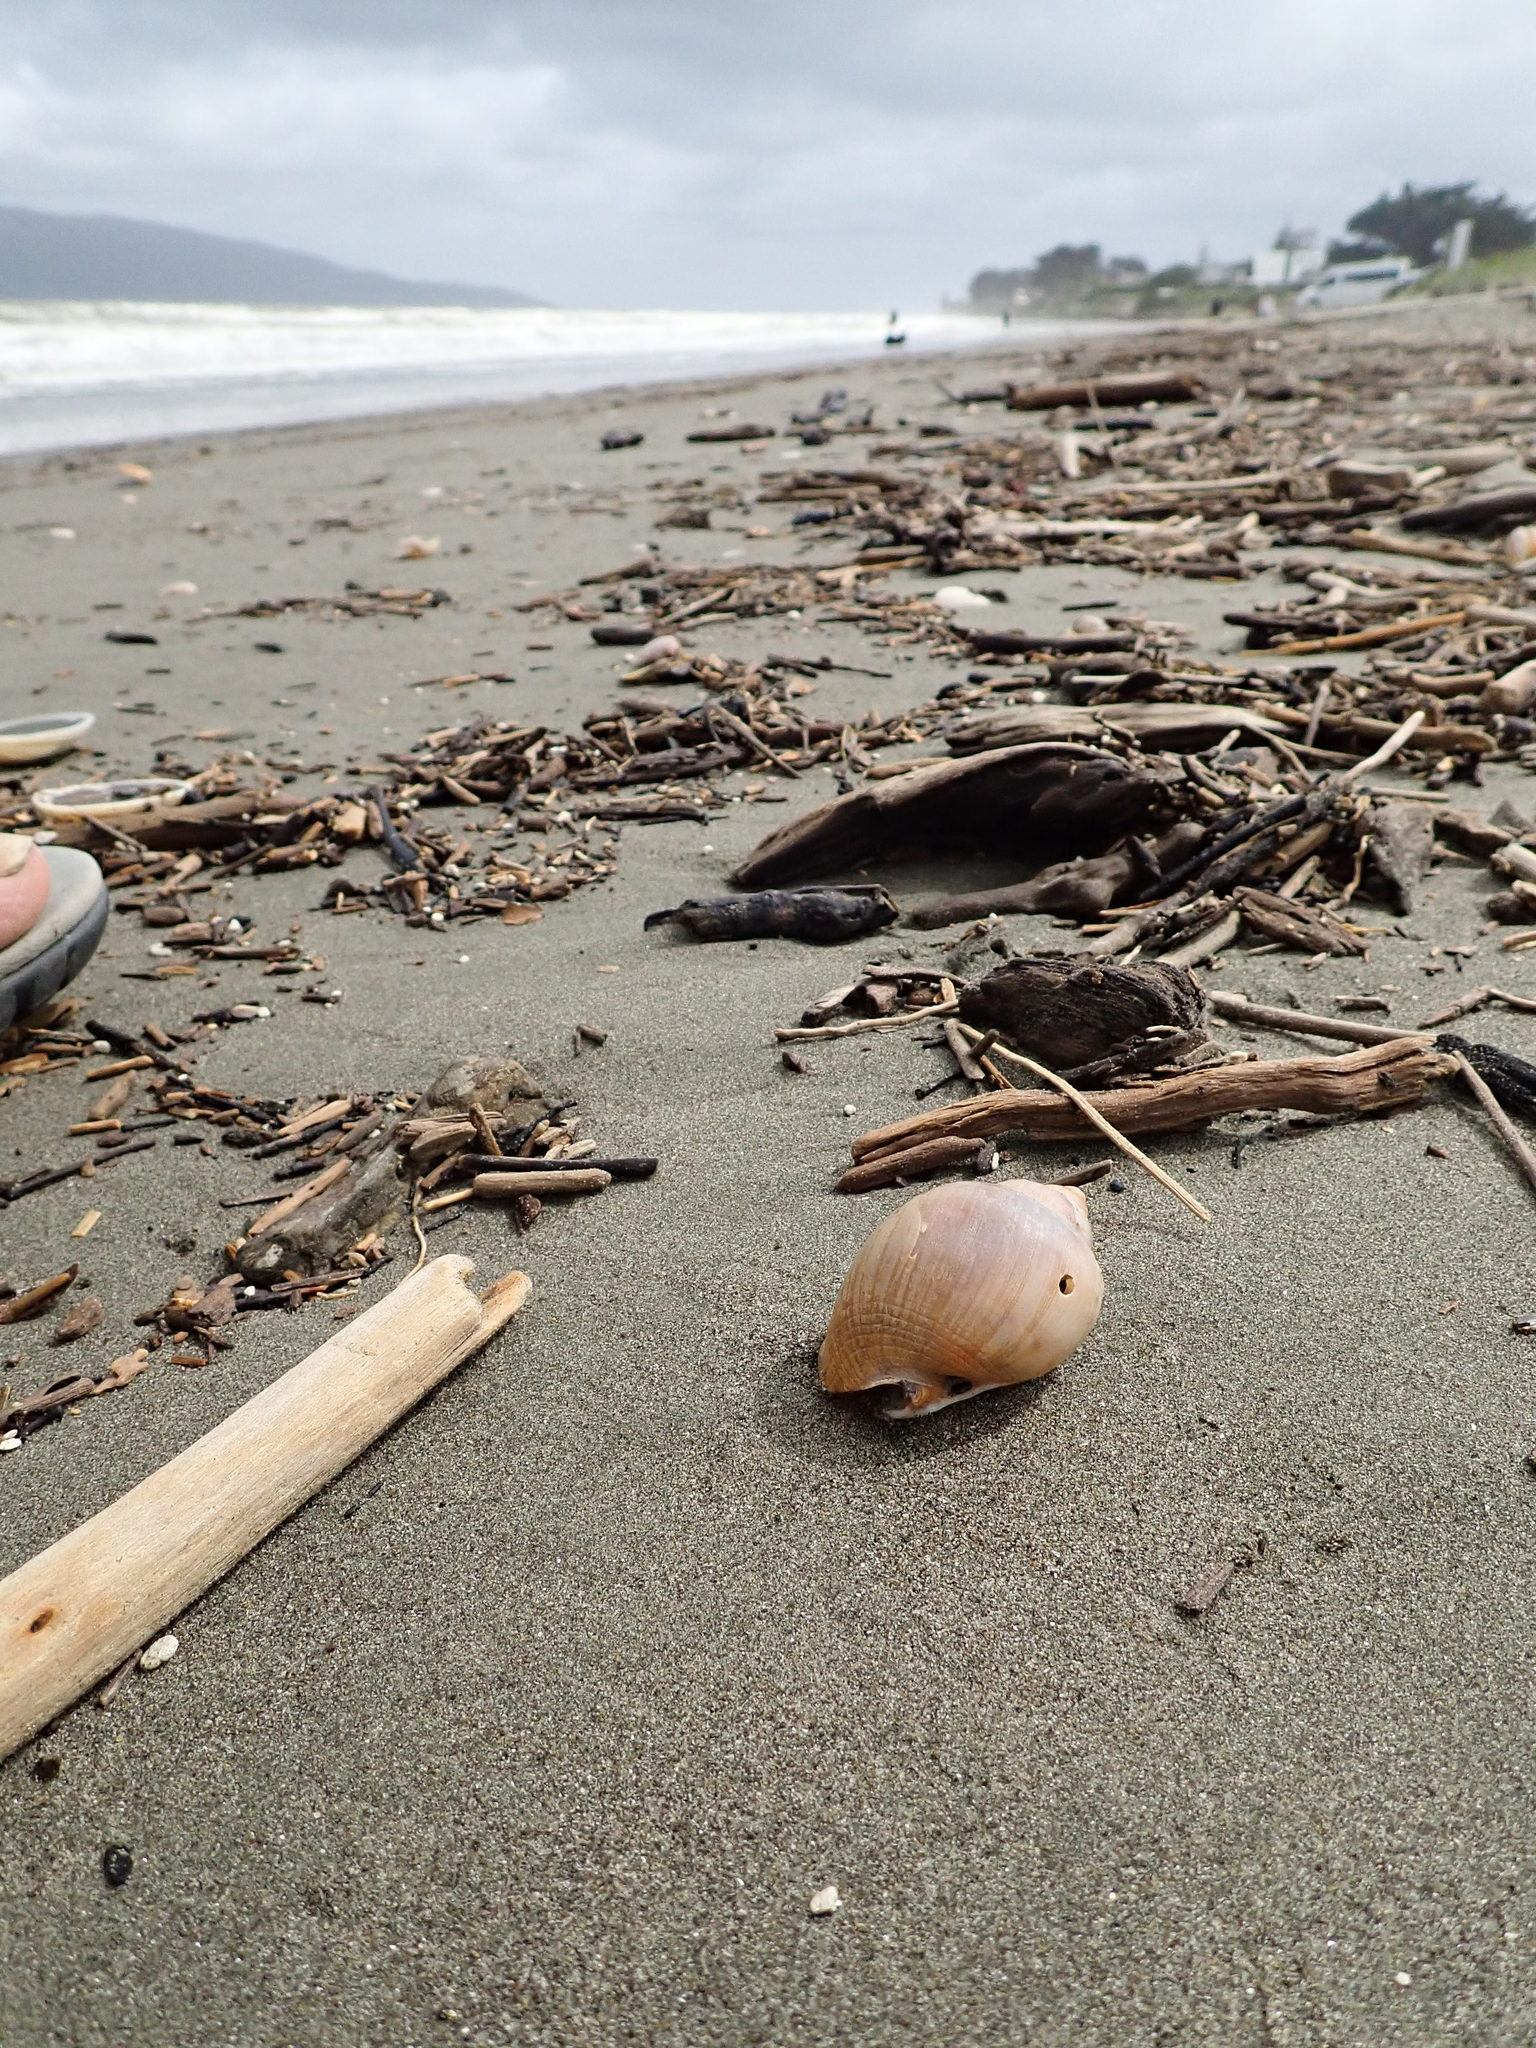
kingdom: Animalia
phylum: Mollusca
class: Gastropoda
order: Littorinimorpha
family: Cassidae
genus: Semicassis
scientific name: Semicassis pyrum
